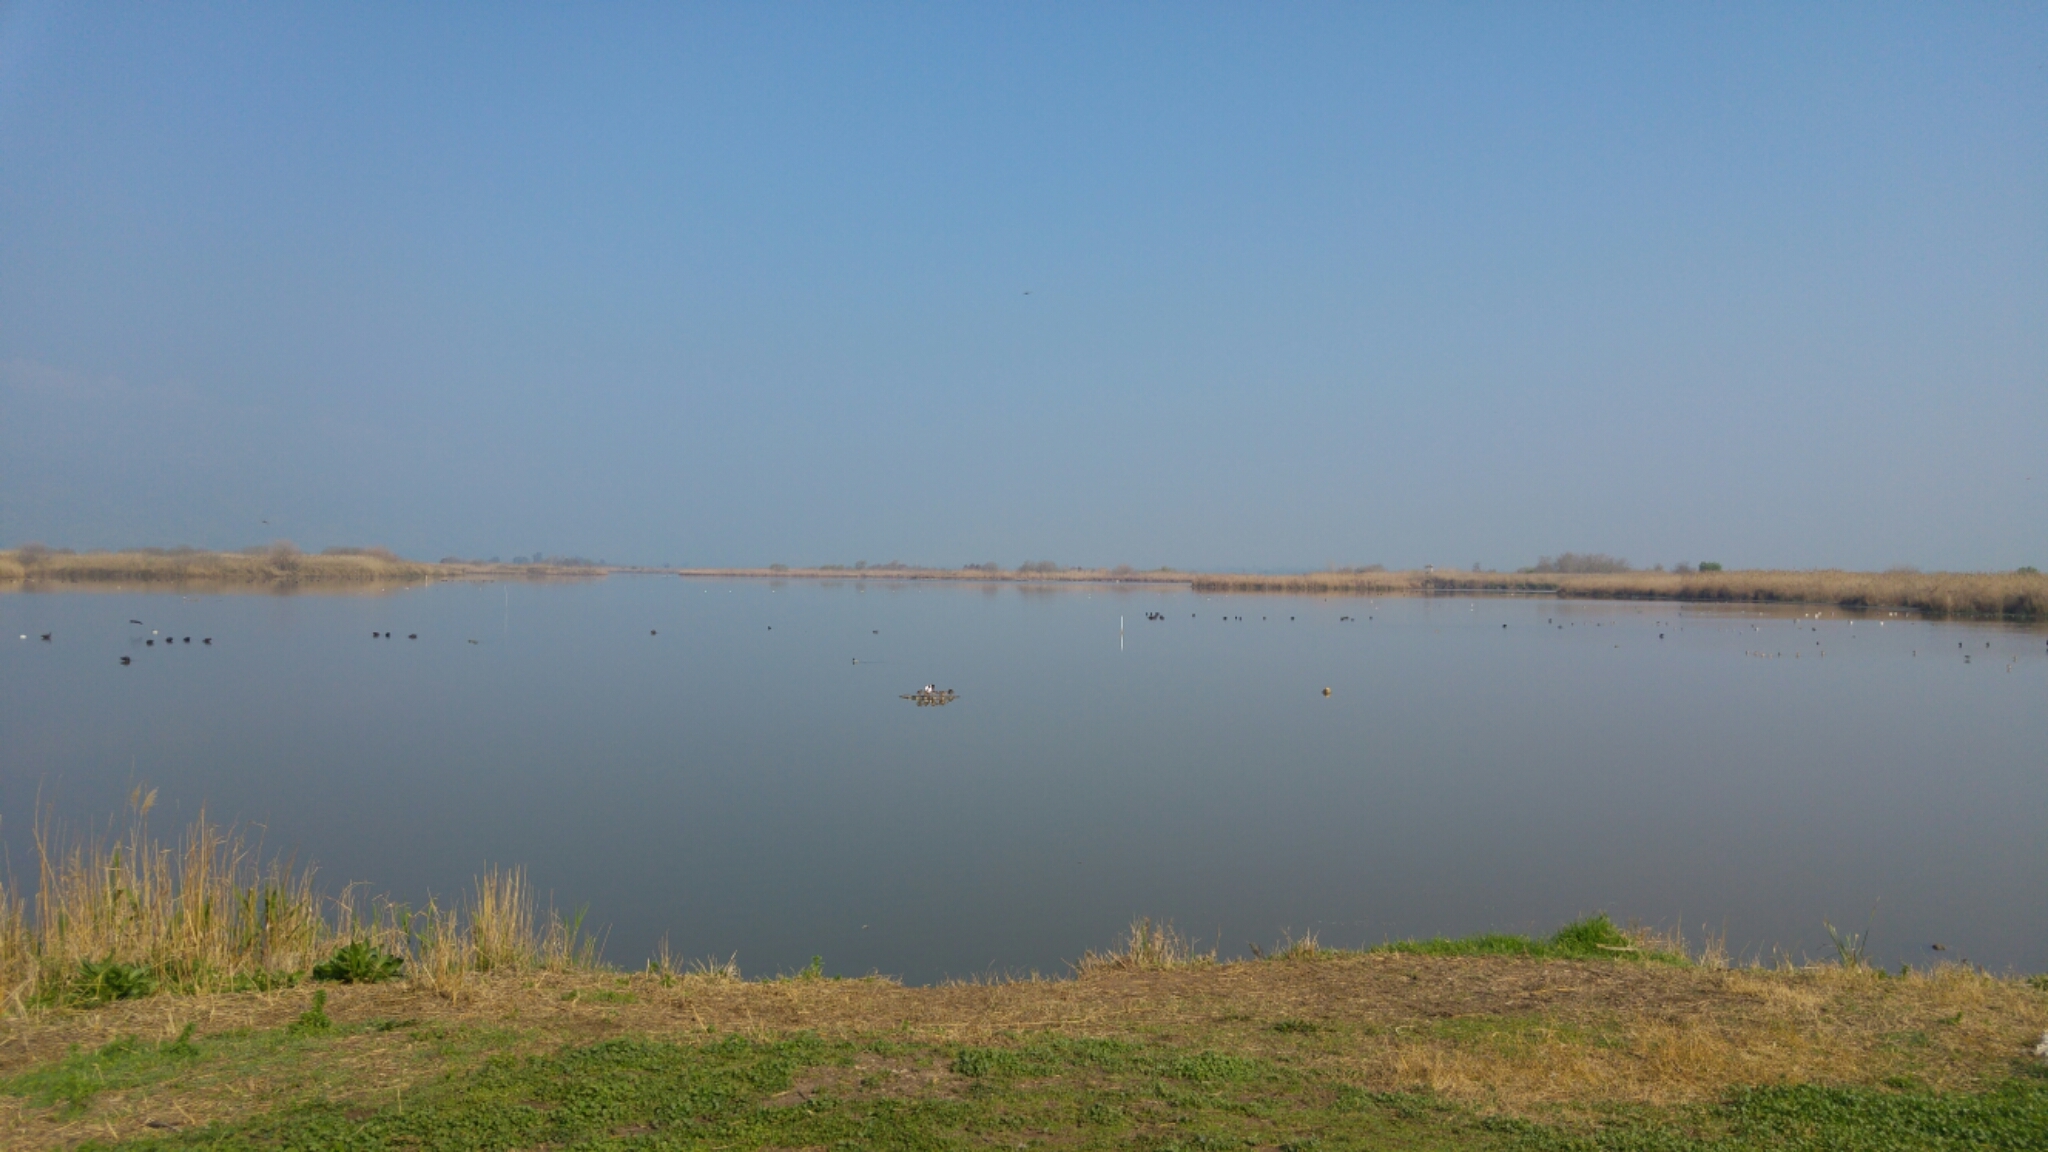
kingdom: Animalia
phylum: Chordata
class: Aves
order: Anseriformes
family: Anatidae
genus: Tadorna
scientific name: Tadorna tadorna
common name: Common shelduck
